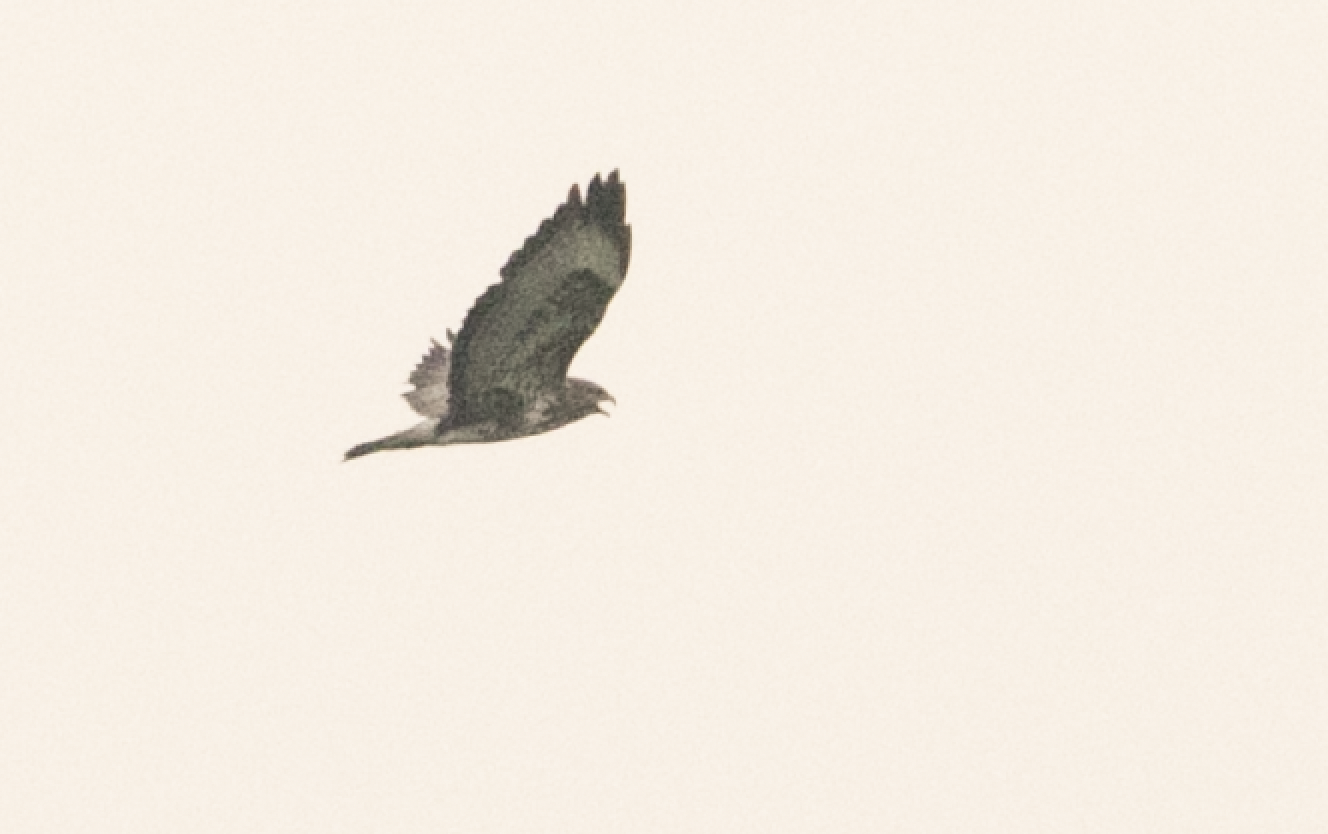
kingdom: Animalia
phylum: Chordata
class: Aves
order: Accipitriformes
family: Accipitridae
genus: Buteo
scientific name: Buteo buteo
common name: Common buzzard
